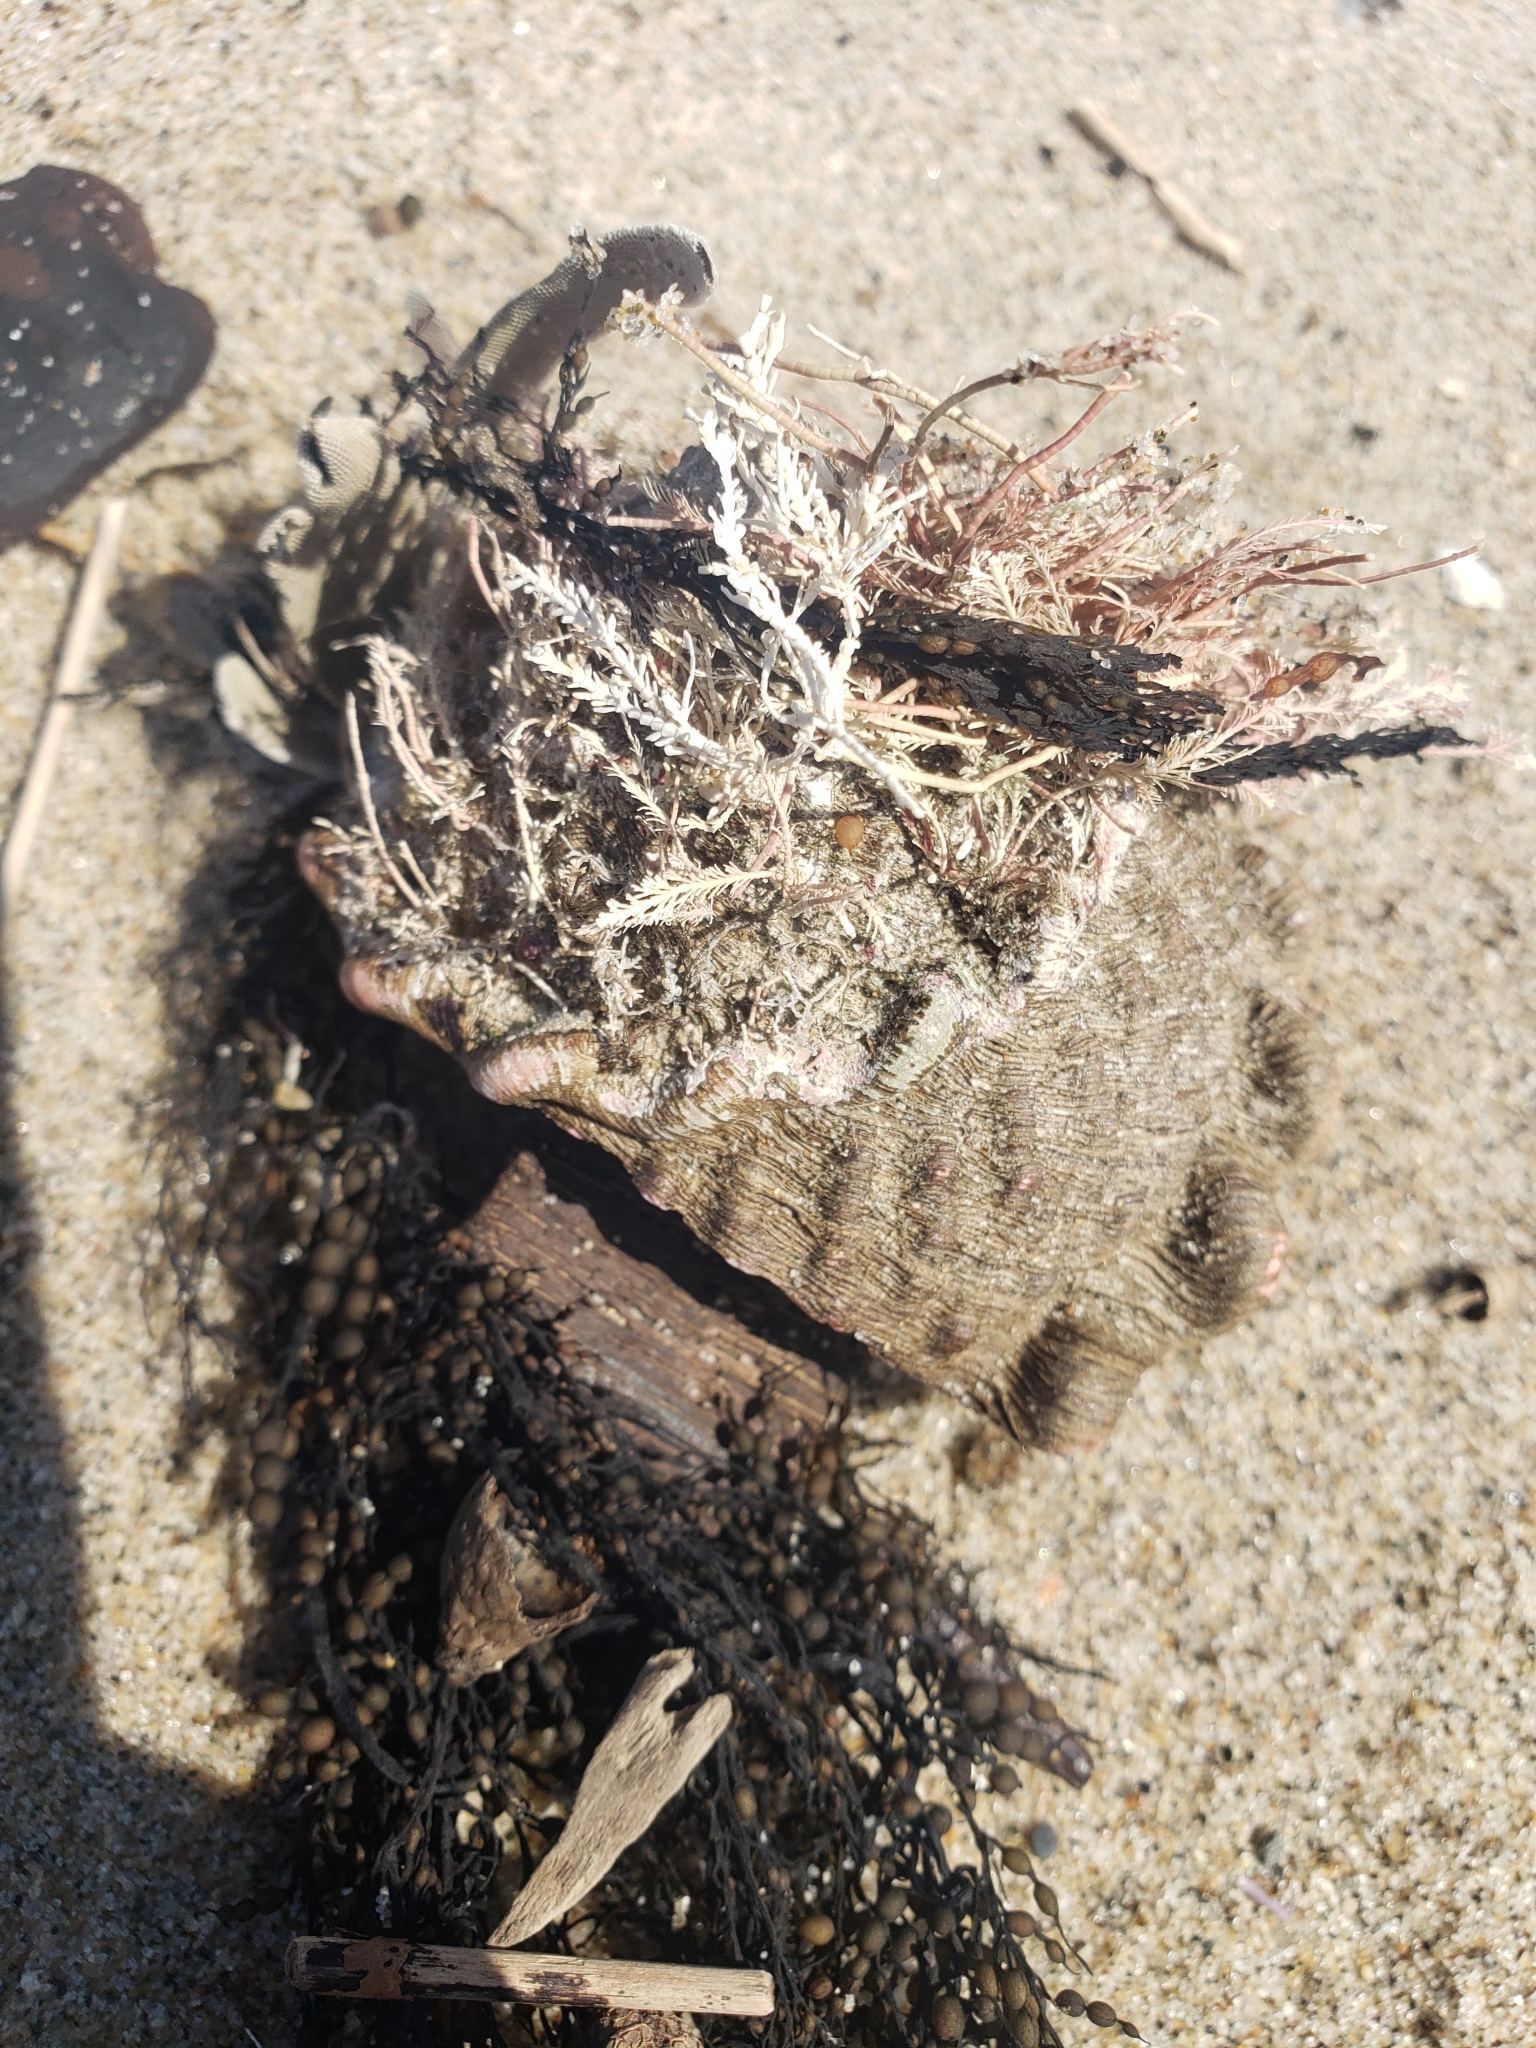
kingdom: Animalia
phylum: Mollusca
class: Gastropoda
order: Trochida
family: Turbinidae
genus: Megastraea
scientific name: Megastraea undosa
